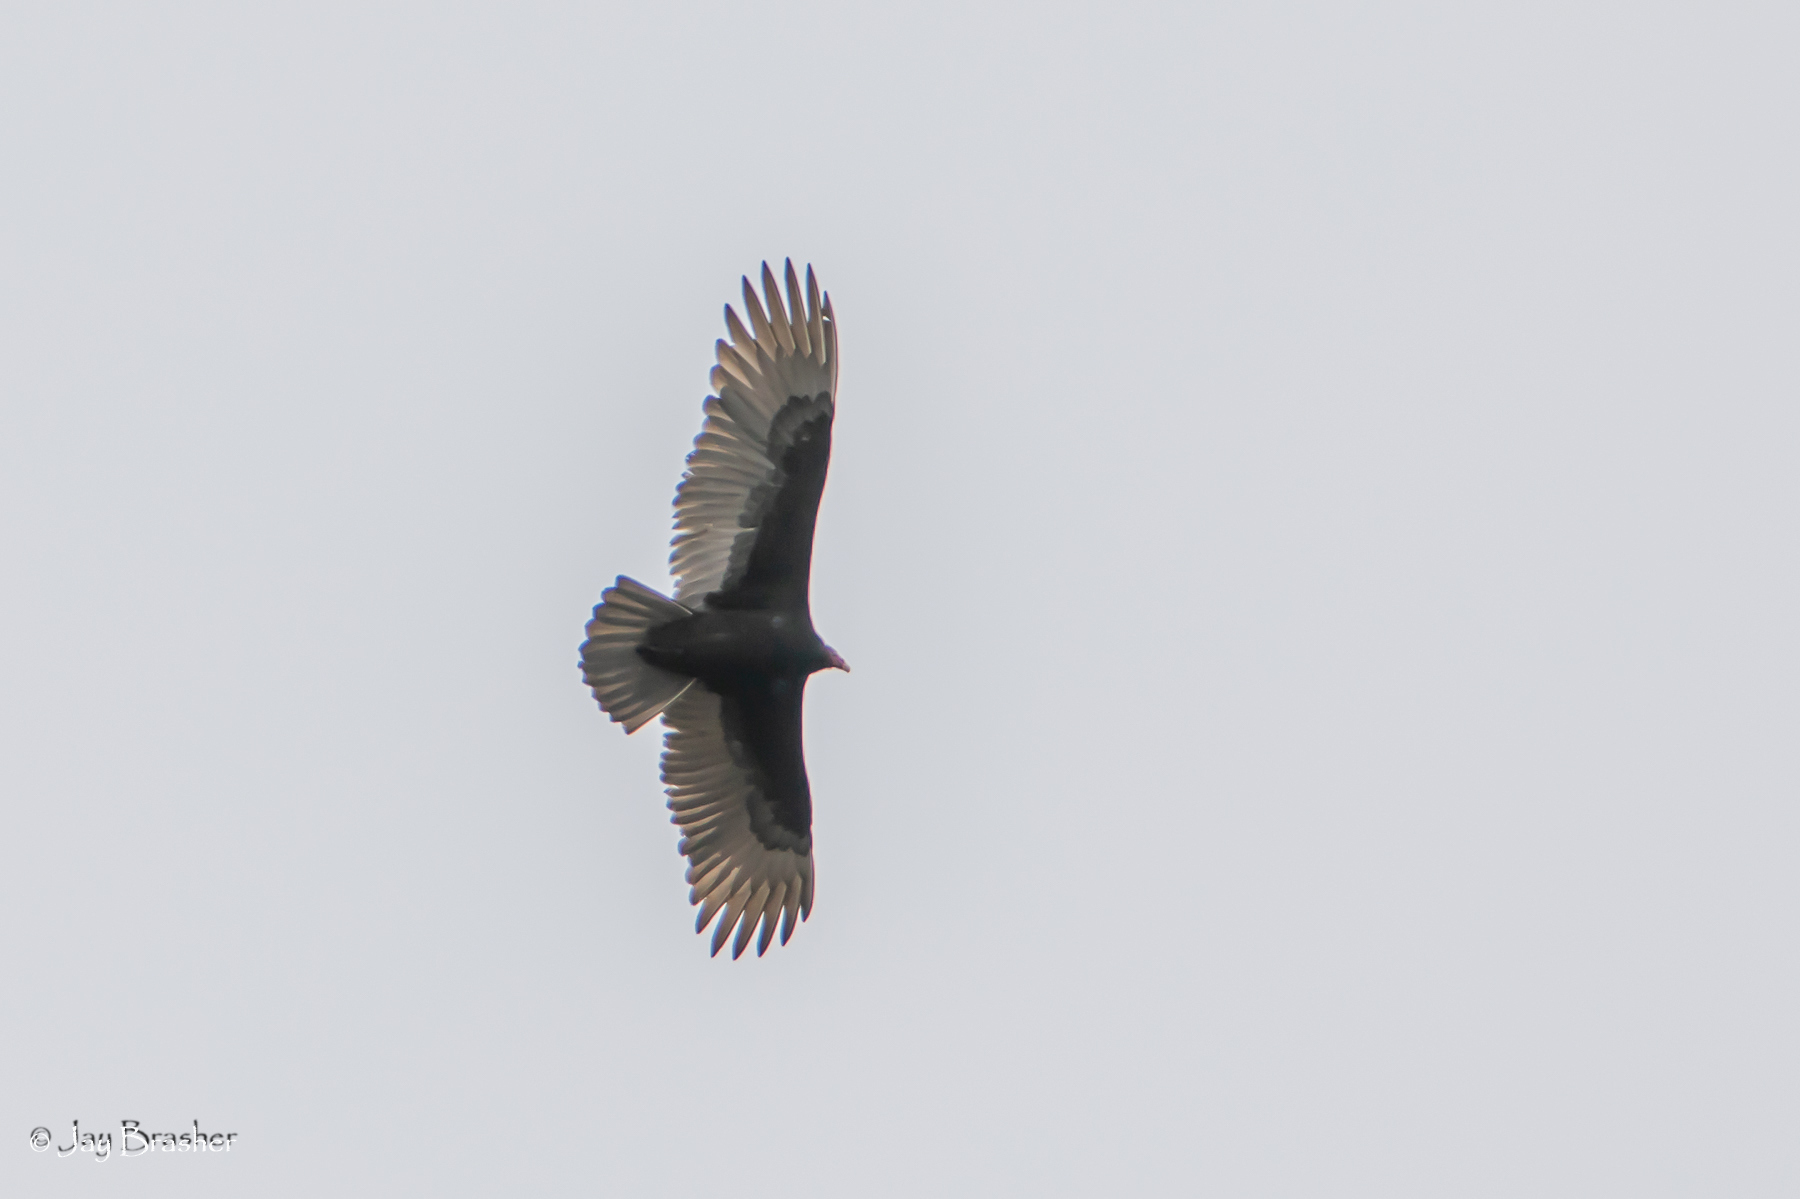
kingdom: Animalia
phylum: Chordata
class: Aves
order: Accipitriformes
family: Cathartidae
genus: Cathartes
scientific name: Cathartes aura
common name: Turkey vulture
